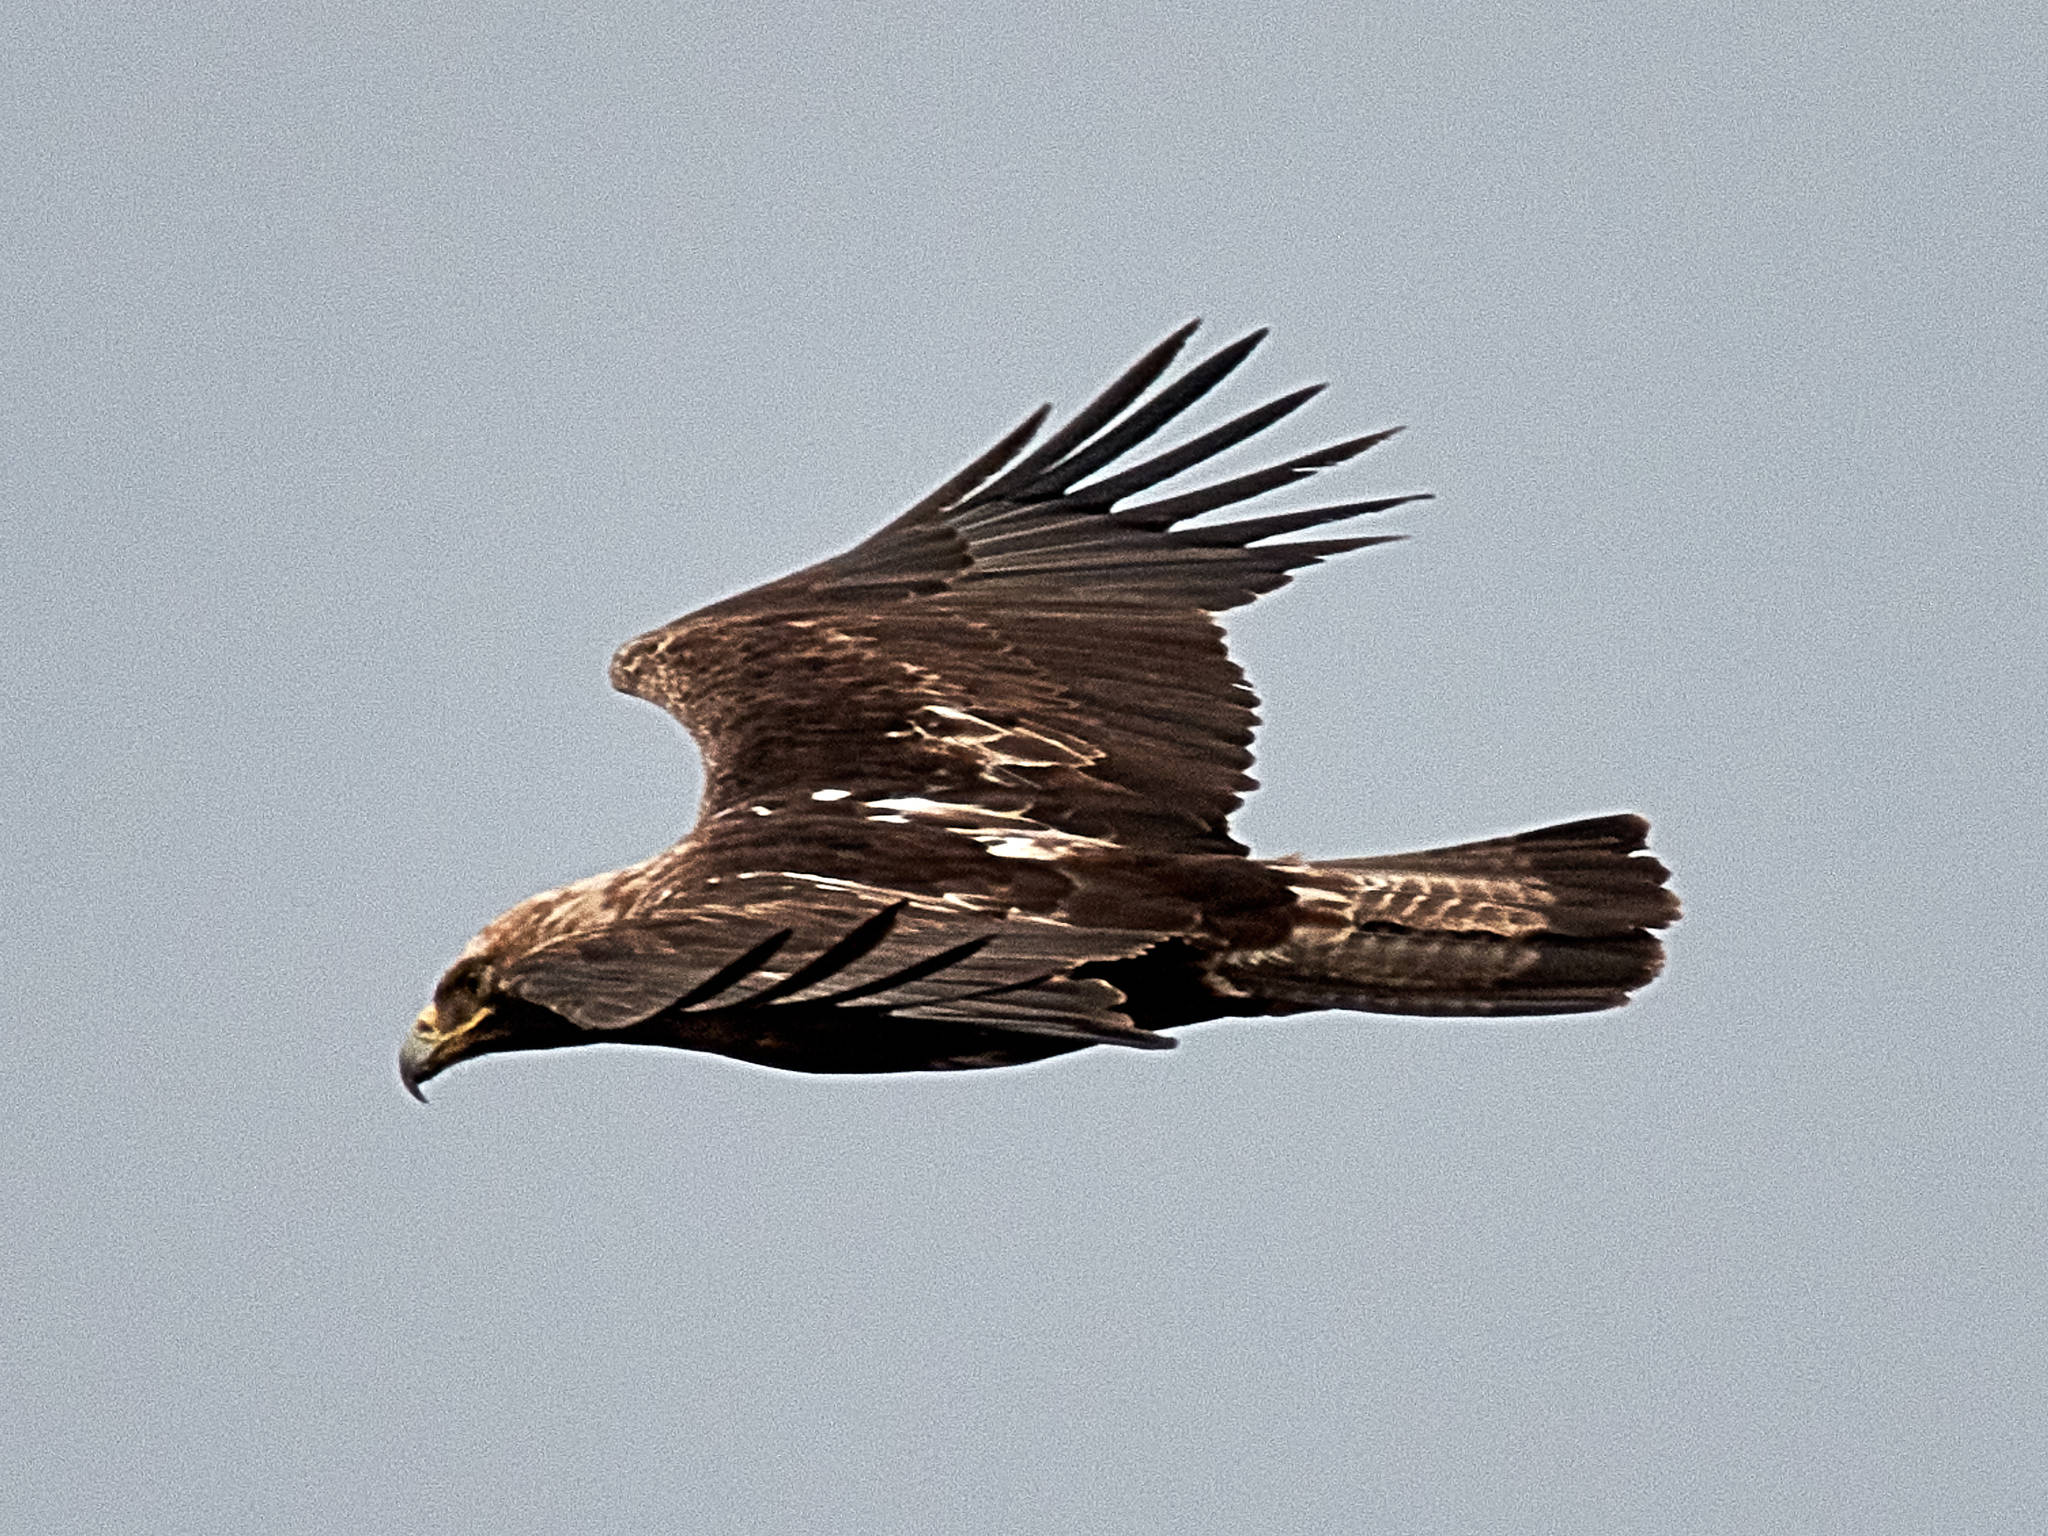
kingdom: Animalia
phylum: Chordata
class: Aves
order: Accipitriformes
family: Accipitridae
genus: Aquila
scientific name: Aquila heliaca
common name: Eastern imperial eagle
